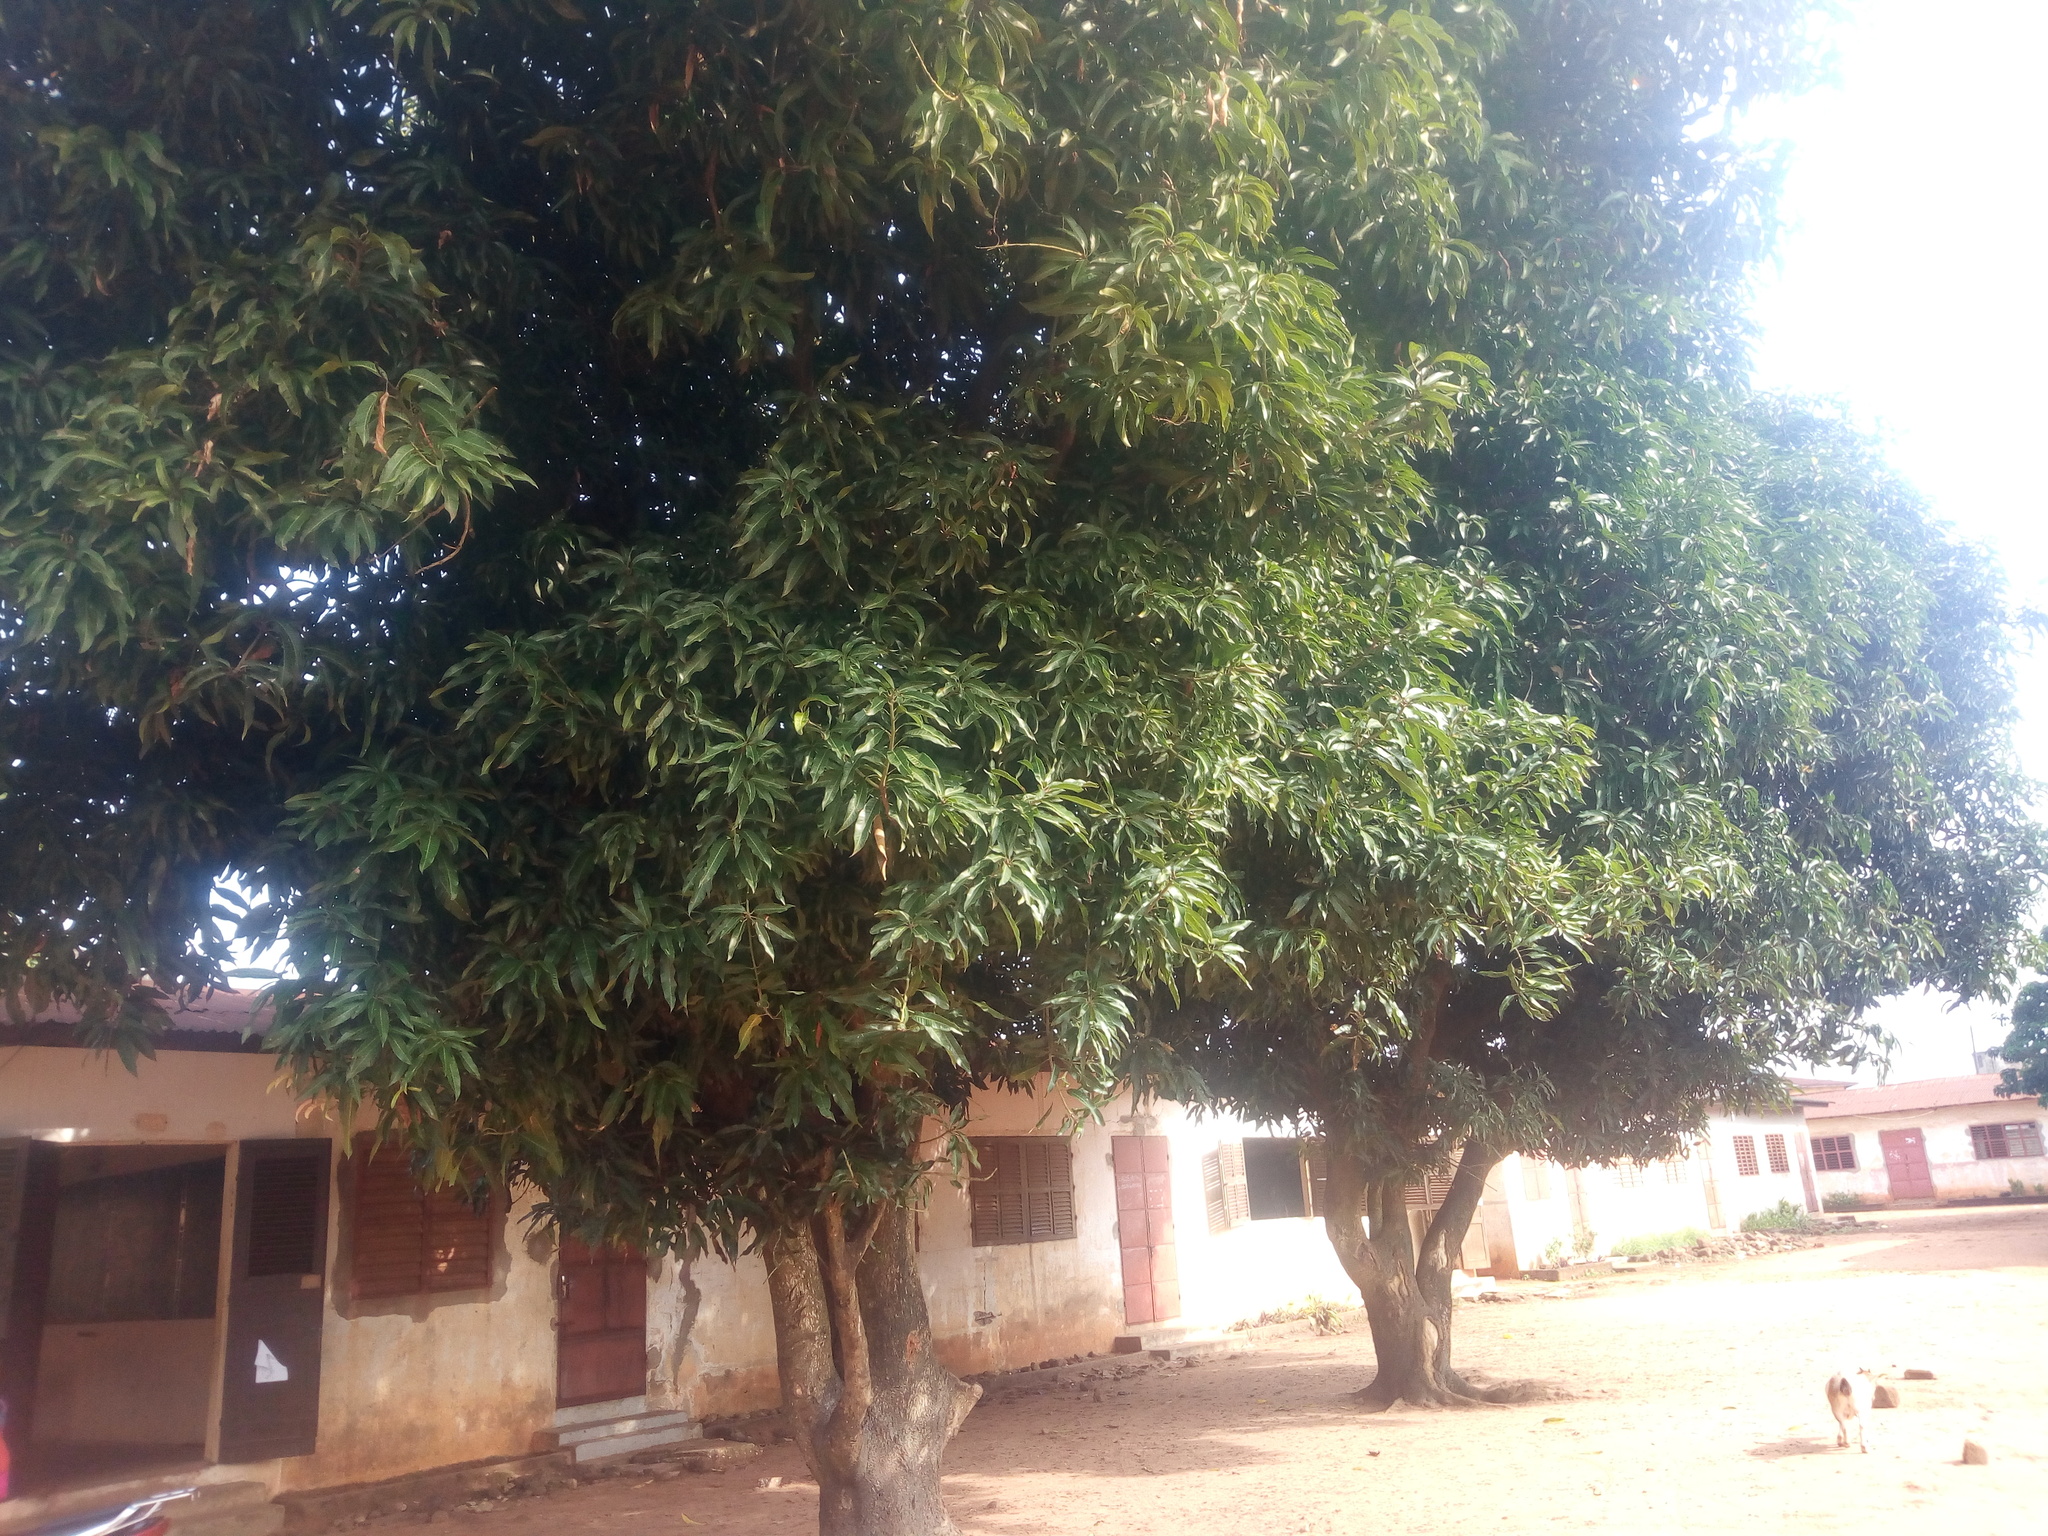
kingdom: Plantae
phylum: Tracheophyta
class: Magnoliopsida
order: Sapindales
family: Anacardiaceae
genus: Mangifera
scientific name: Mangifera indica
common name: Mango
